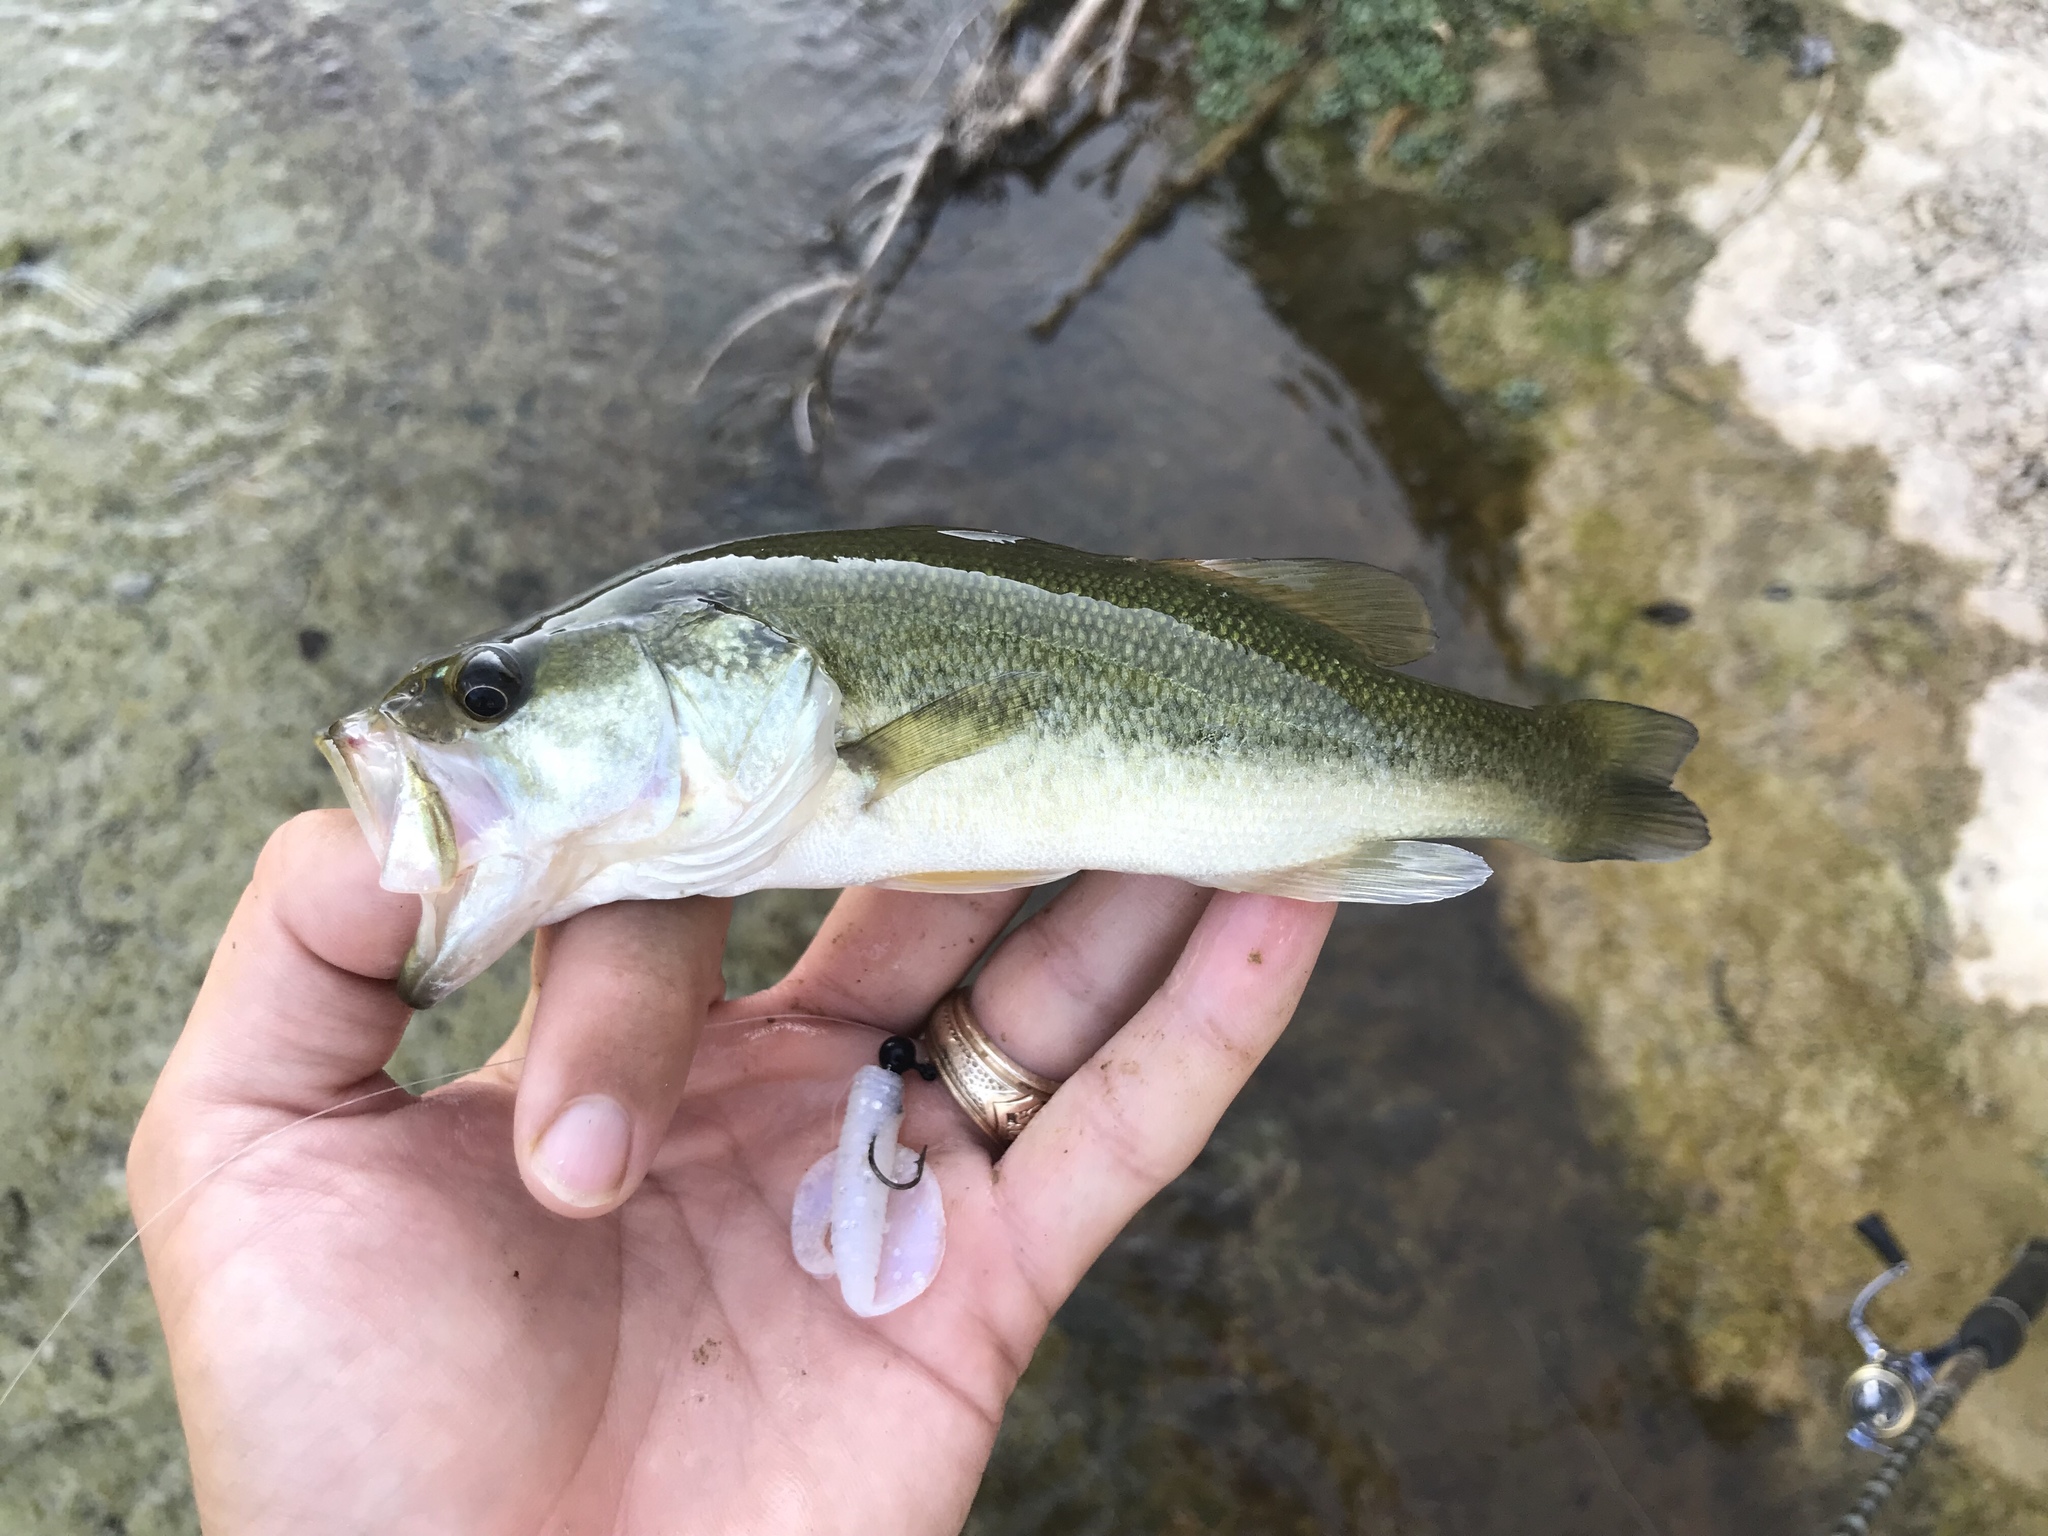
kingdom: Animalia
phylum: Chordata
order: Perciformes
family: Centrarchidae
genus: Micropterus
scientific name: Micropterus
